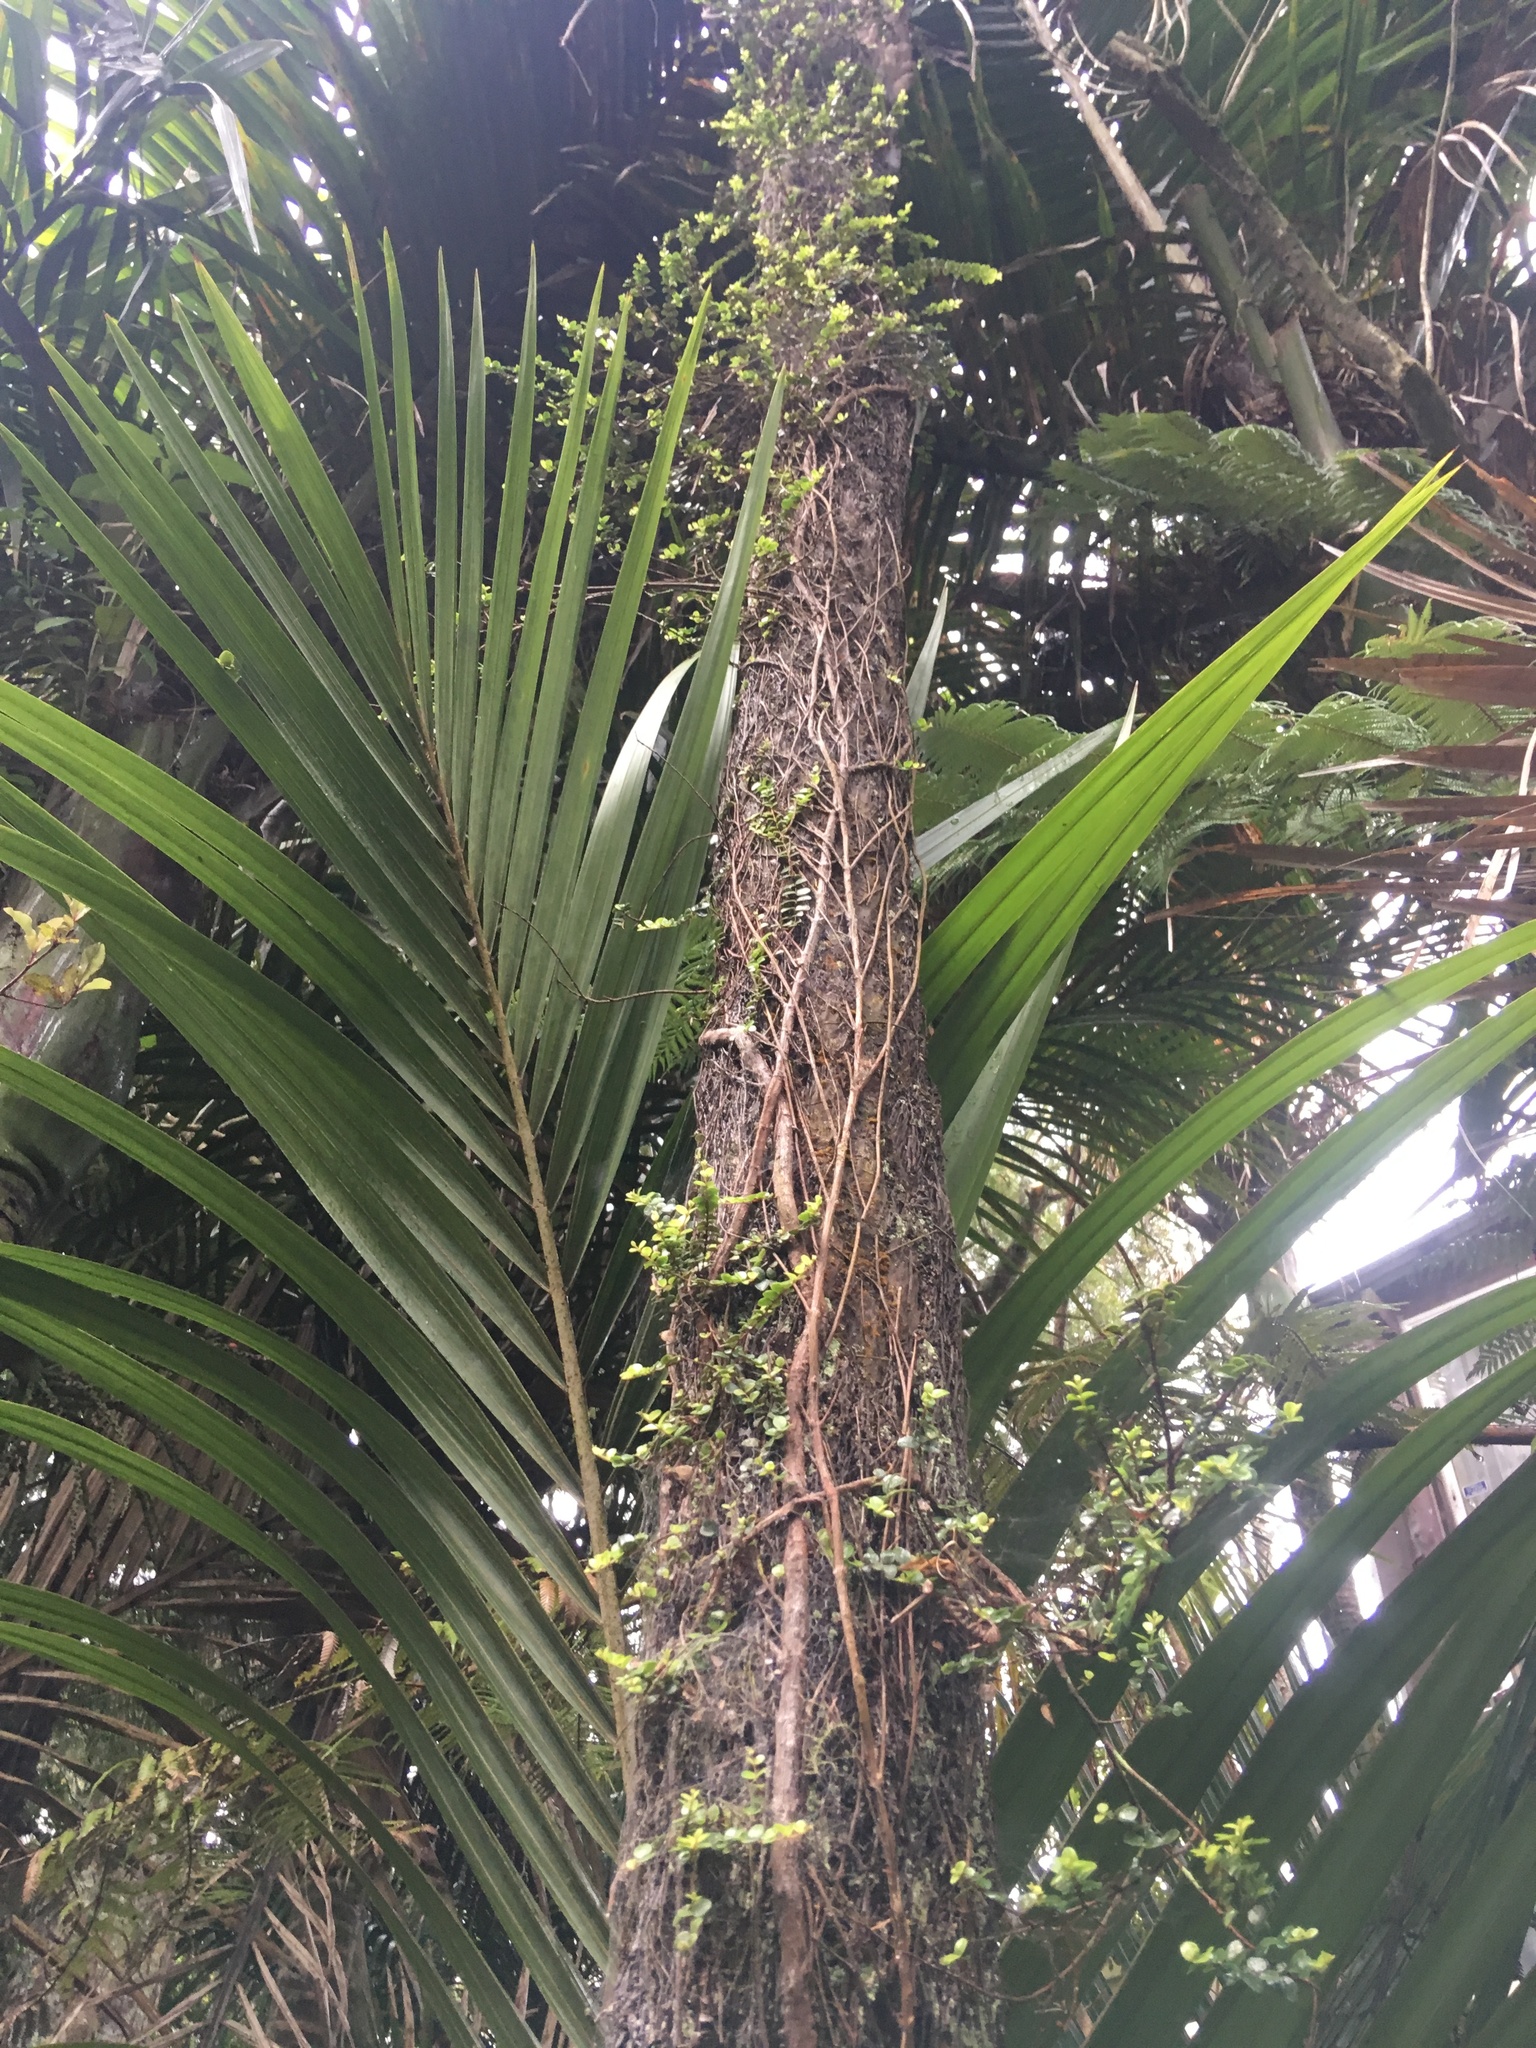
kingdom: Plantae
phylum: Tracheophyta
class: Liliopsida
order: Arecales
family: Arecaceae
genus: Rhopalostylis
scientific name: Rhopalostylis sapida
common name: Feather-duster palm
